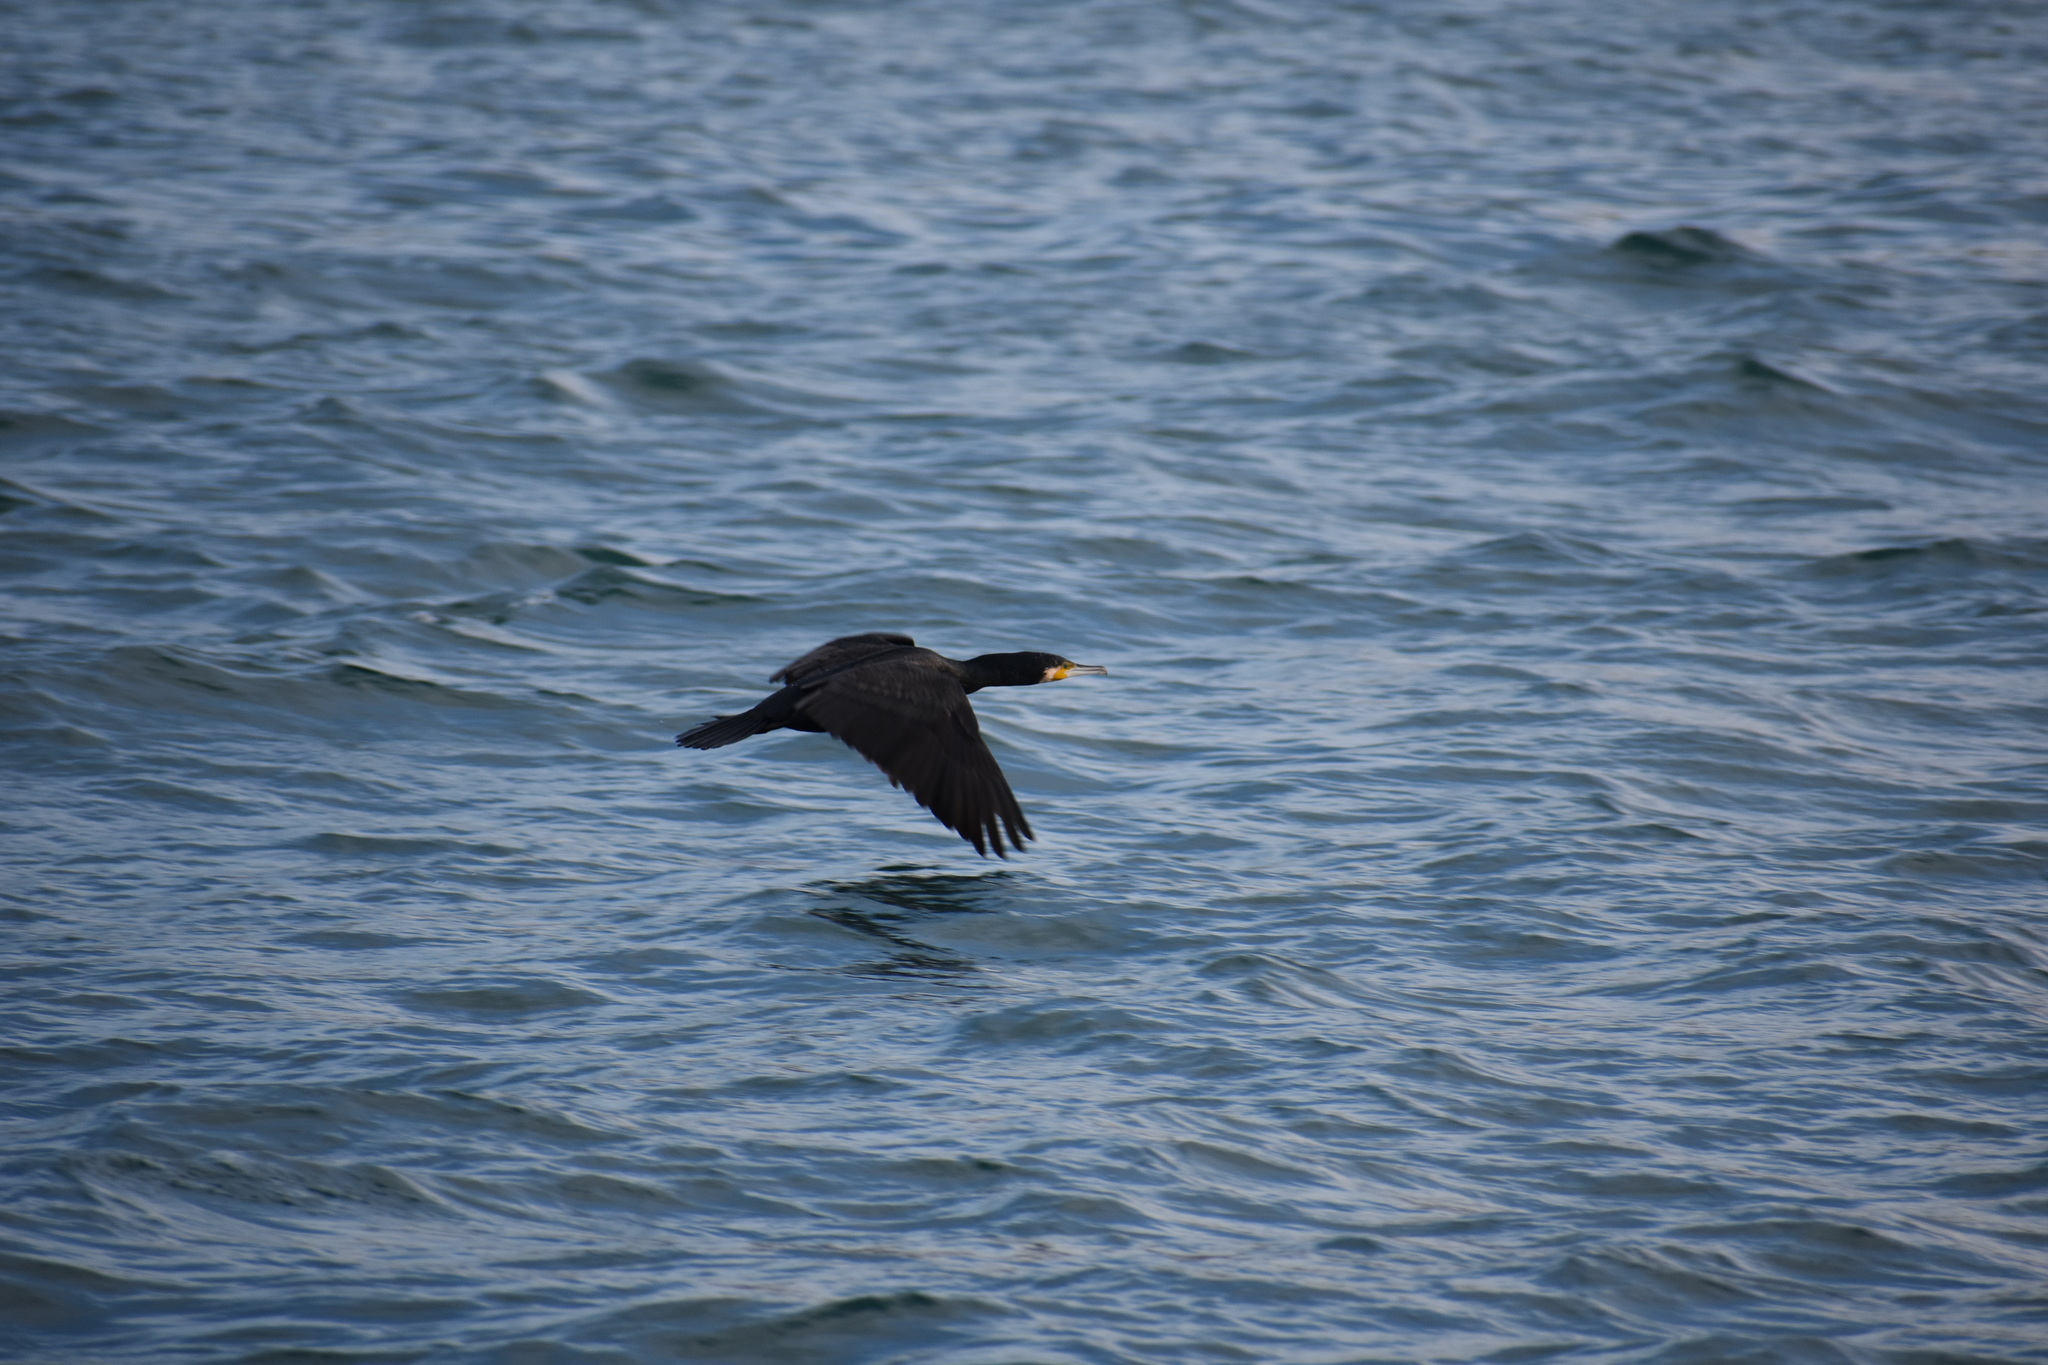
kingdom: Animalia
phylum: Chordata
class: Aves
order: Suliformes
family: Phalacrocoracidae
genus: Phalacrocorax
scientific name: Phalacrocorax carbo
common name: Great cormorant
